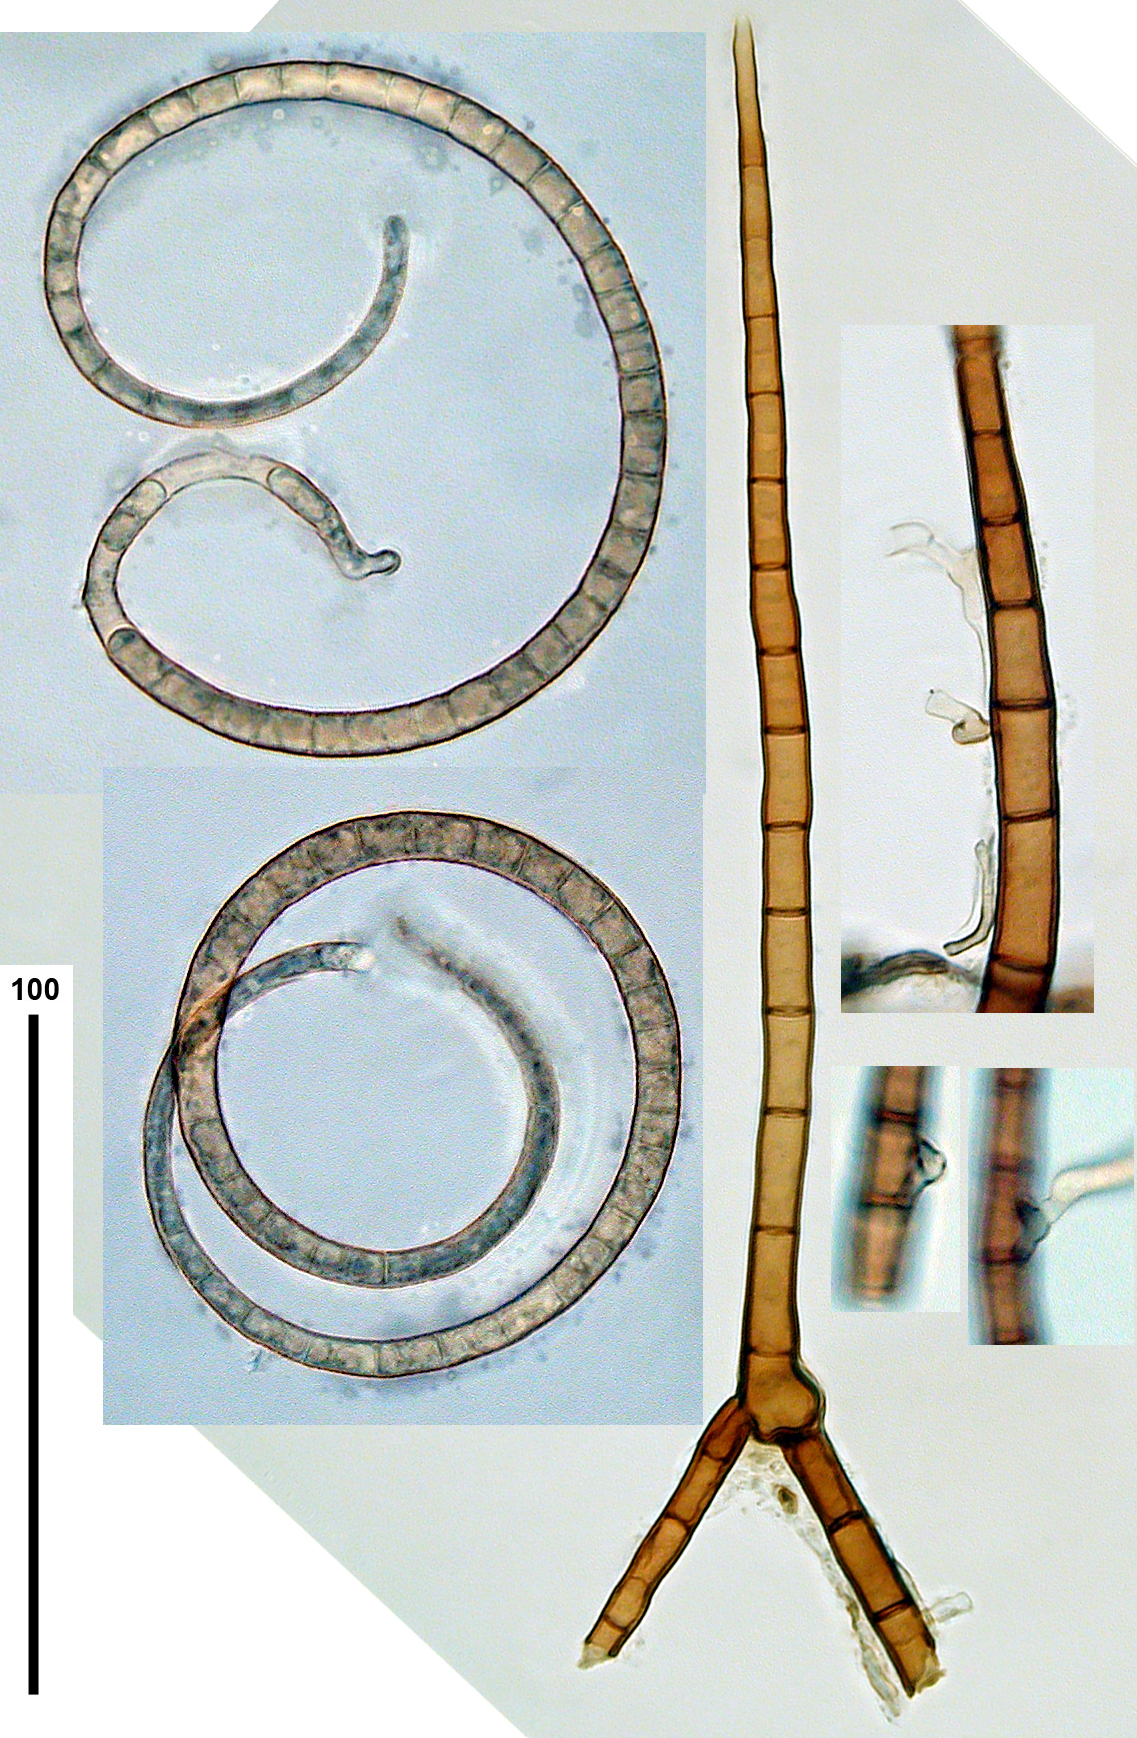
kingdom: Fungi
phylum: Ascomycota
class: Dothideomycetes
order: Tubeufiales
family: Tubeufiaceae
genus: Helicoma
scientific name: Helicoma pannosum
